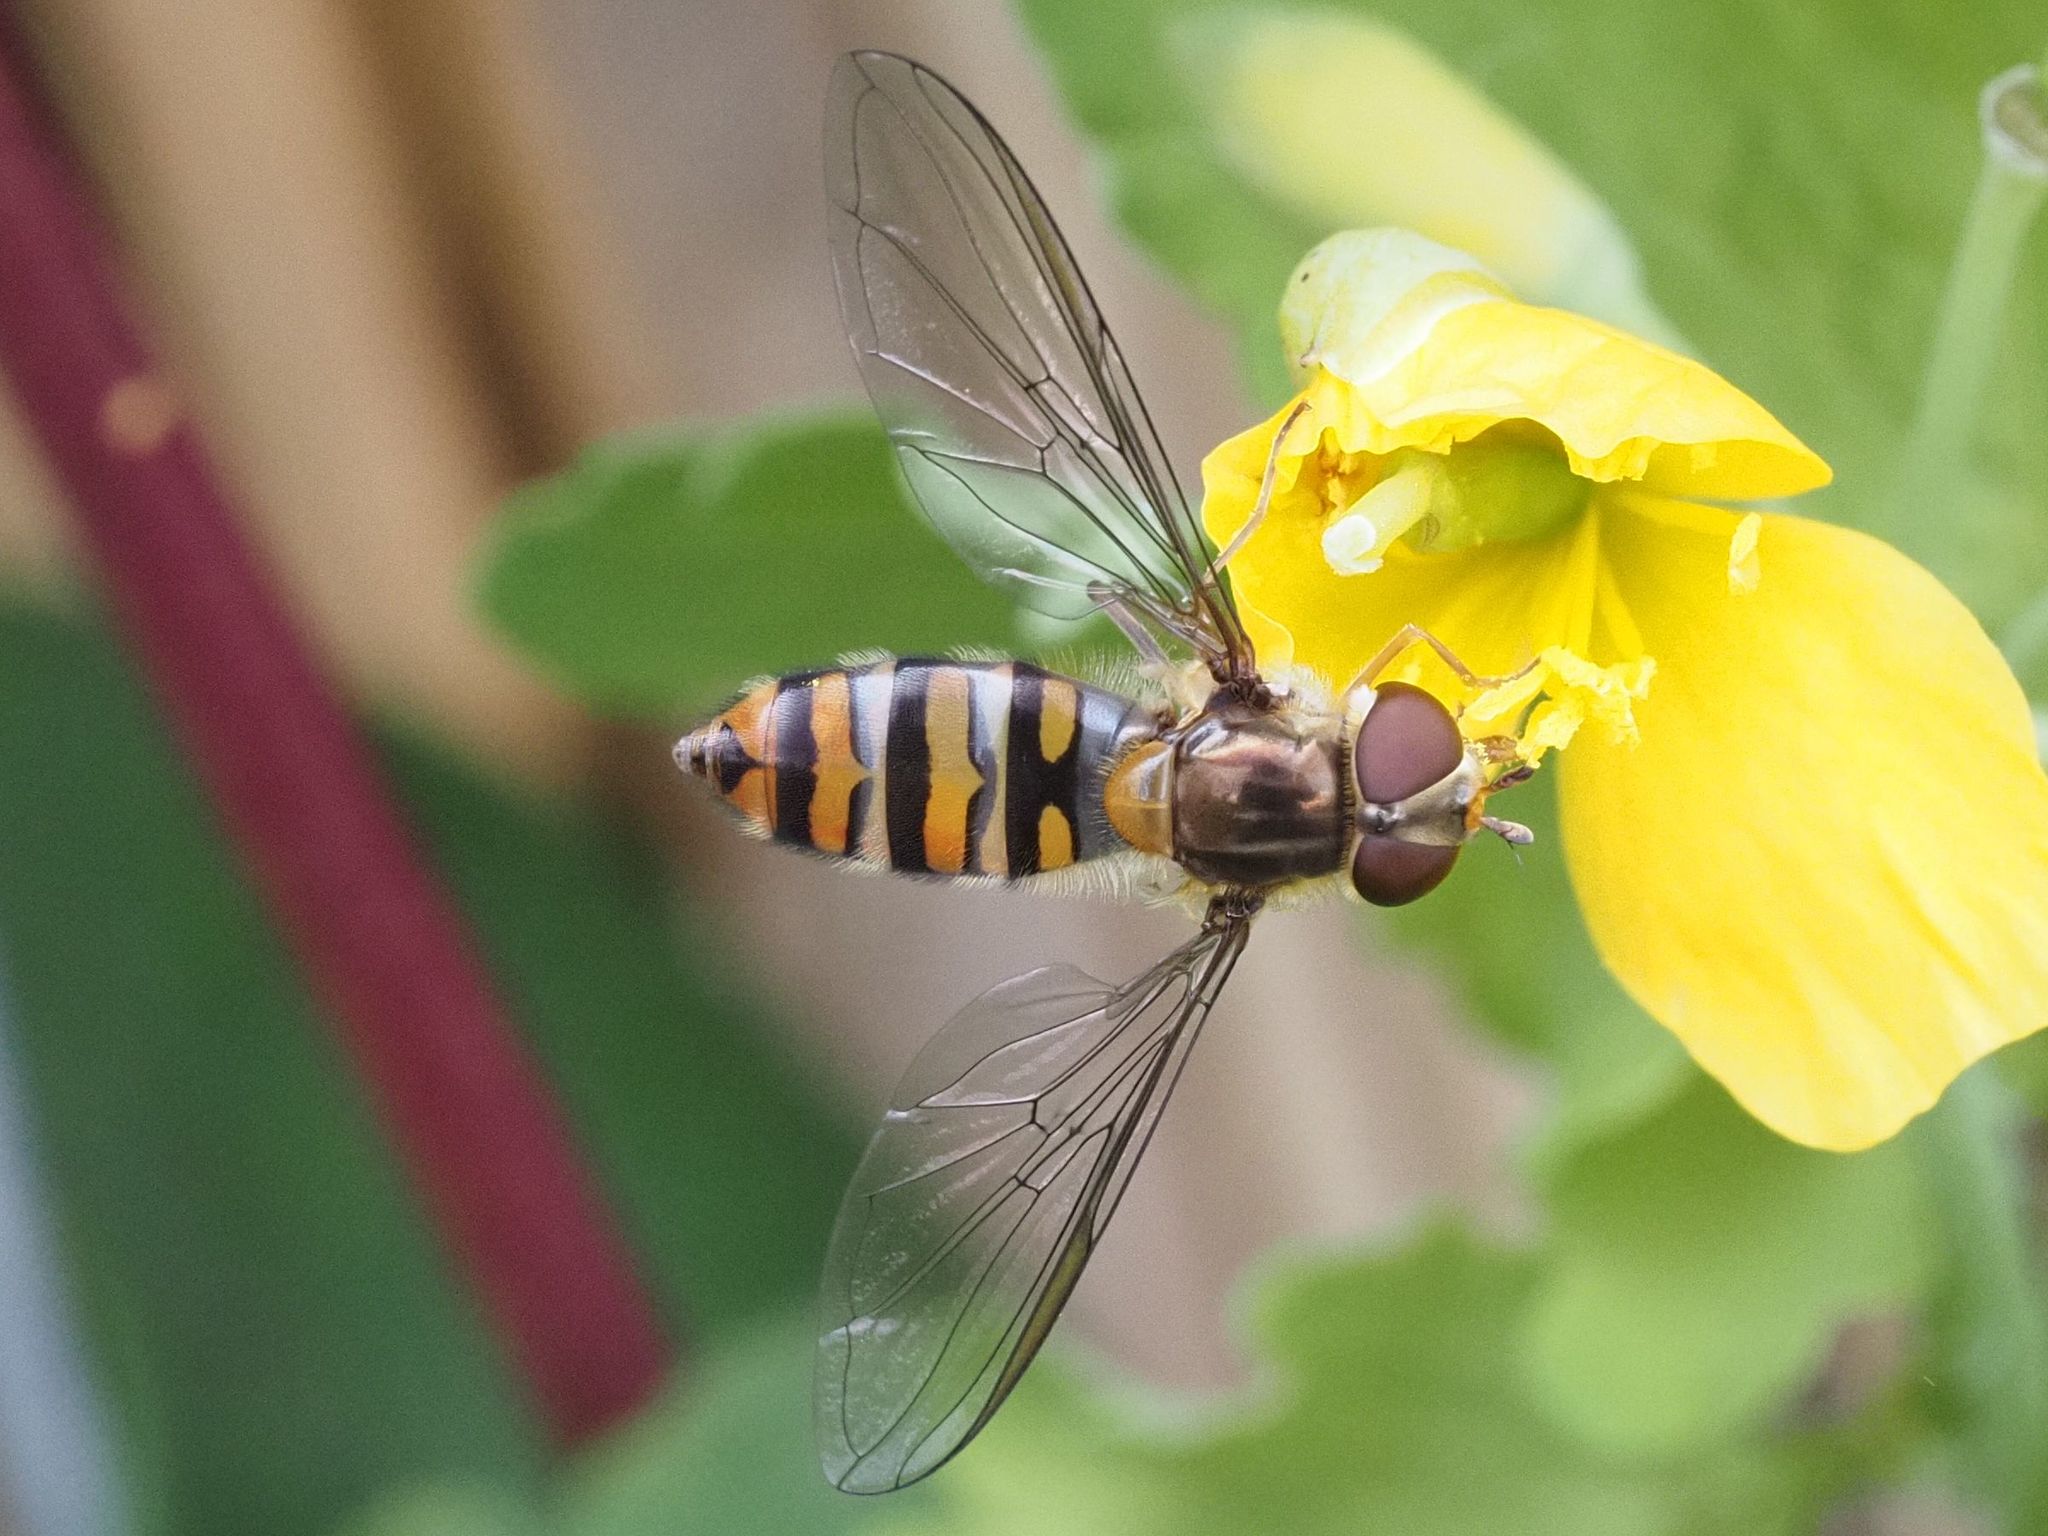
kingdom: Animalia
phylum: Arthropoda
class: Insecta
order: Diptera
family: Syrphidae
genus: Episyrphus
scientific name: Episyrphus balteatus
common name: Marmalade hoverfly
